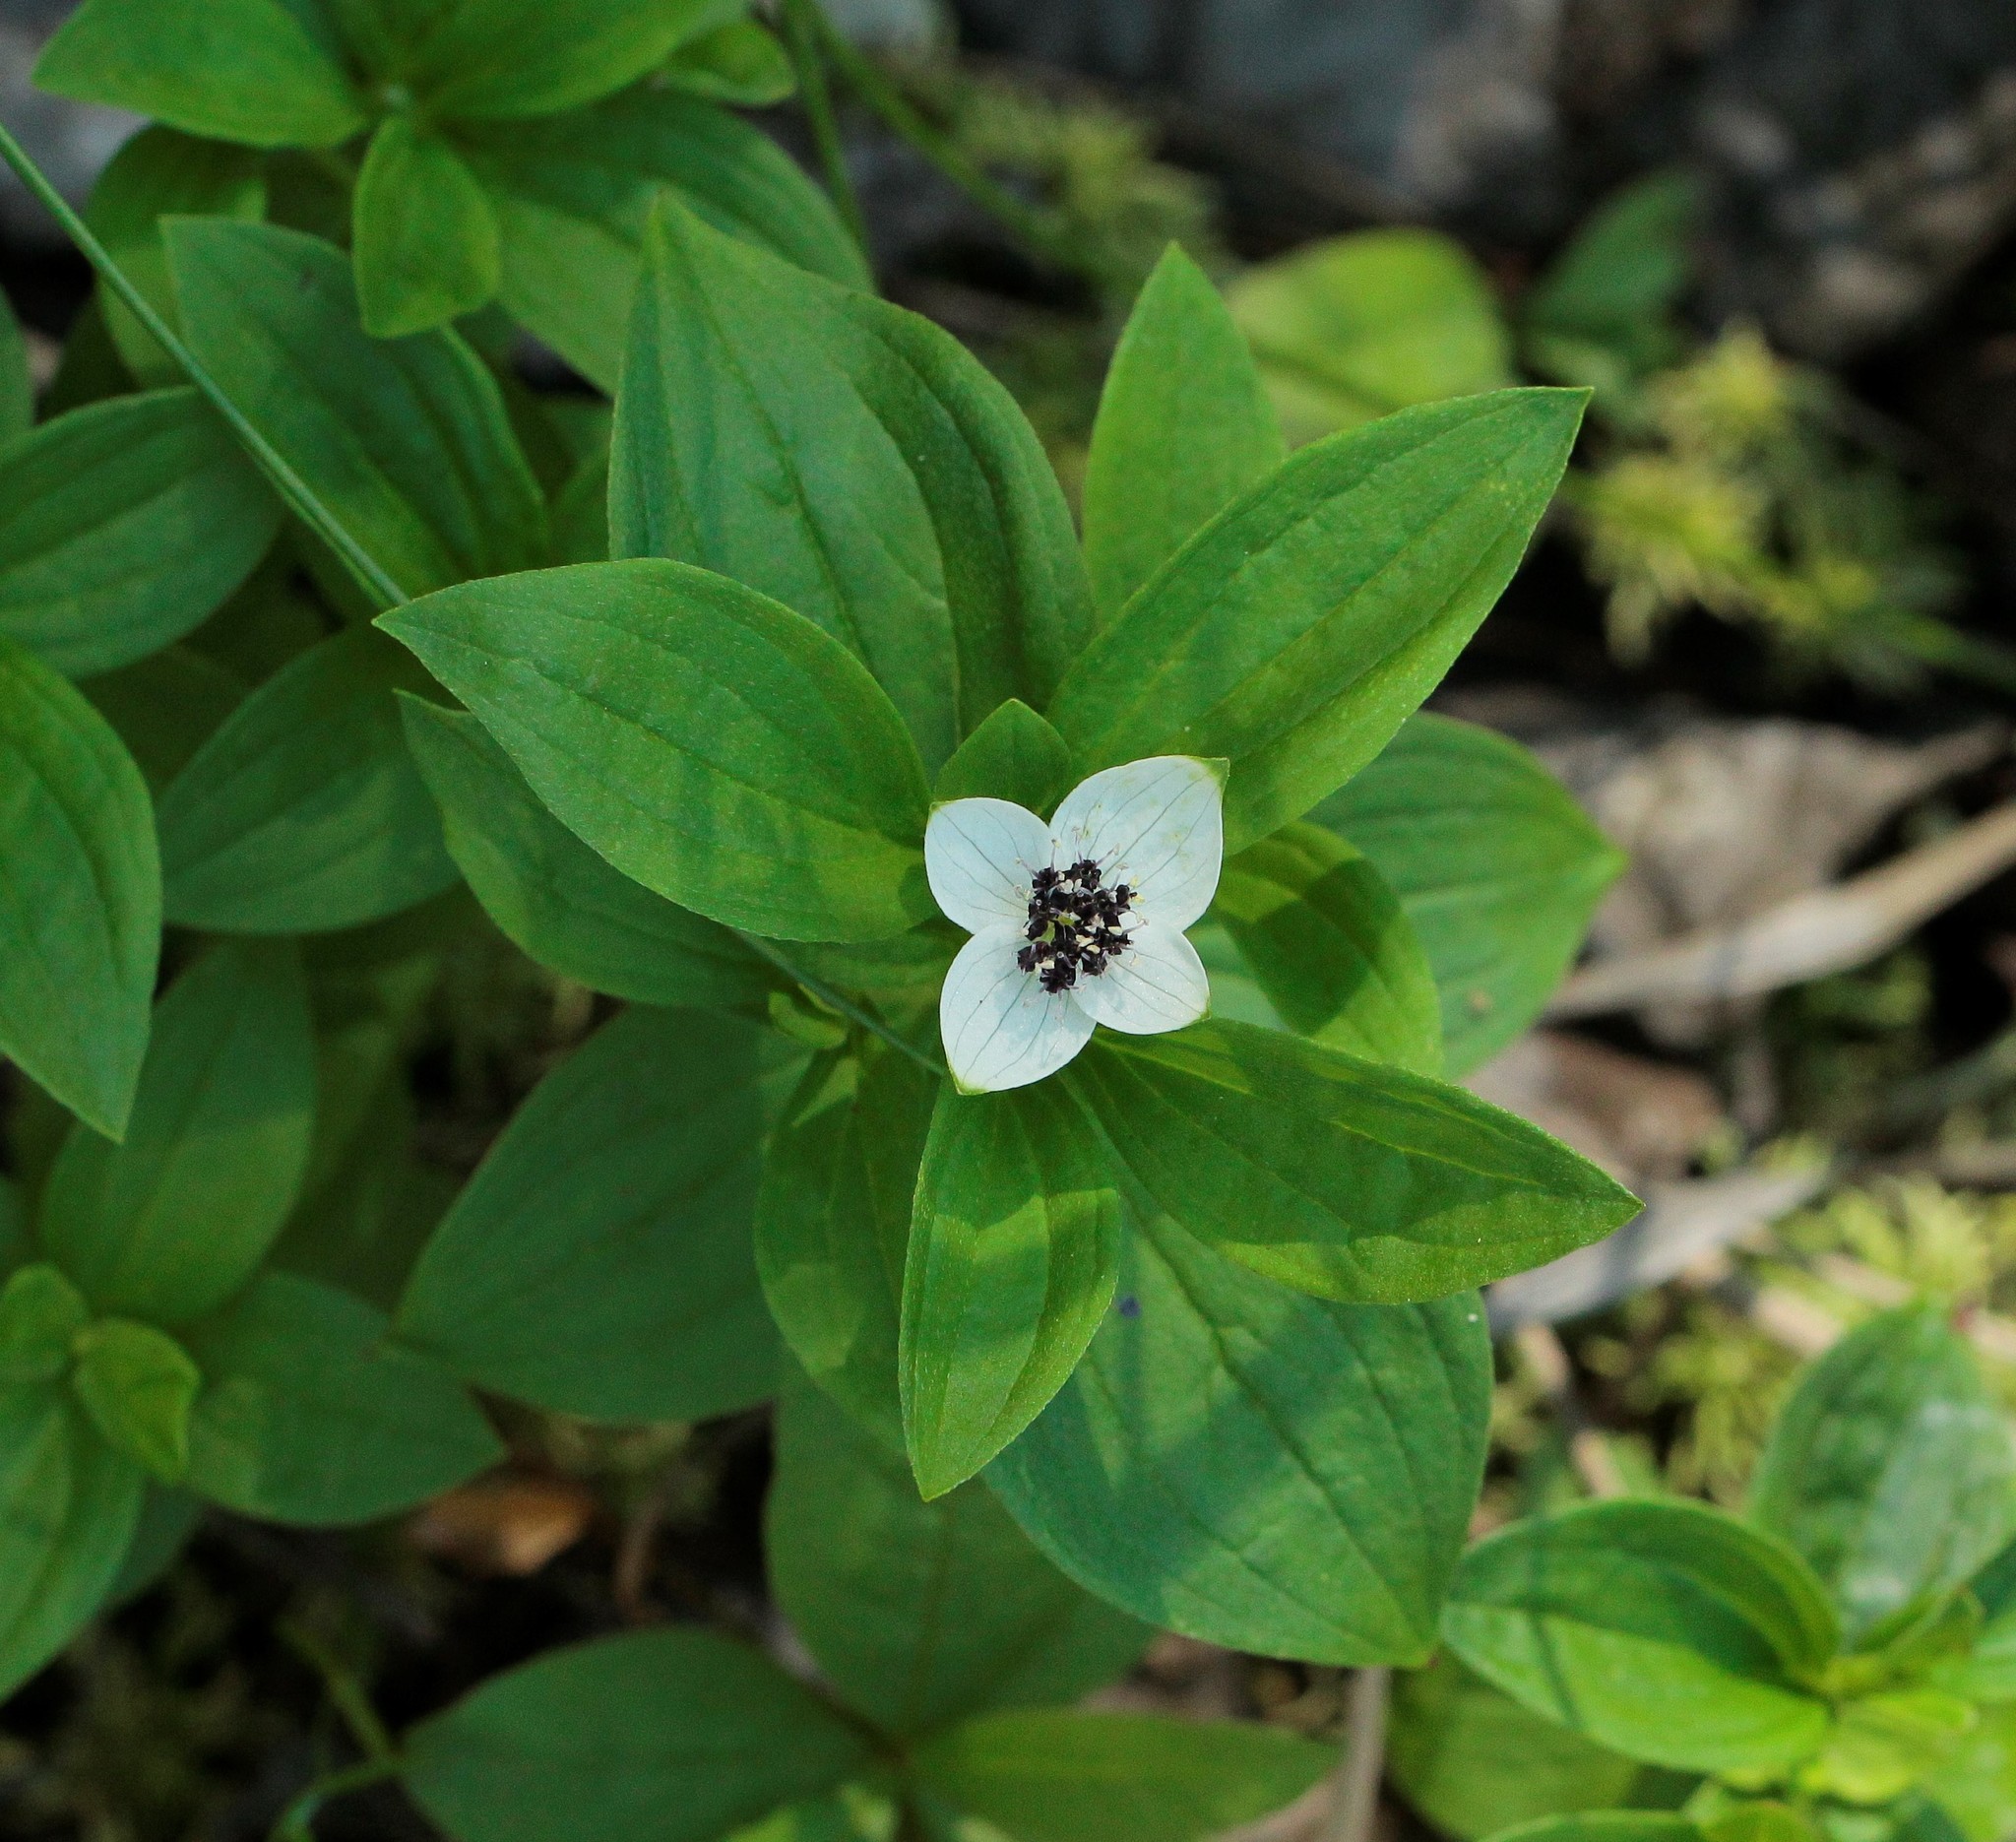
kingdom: Plantae
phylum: Tracheophyta
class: Magnoliopsida
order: Cornales
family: Cornaceae
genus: Cornus
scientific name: Cornus suecica
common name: Dwarf cornel
